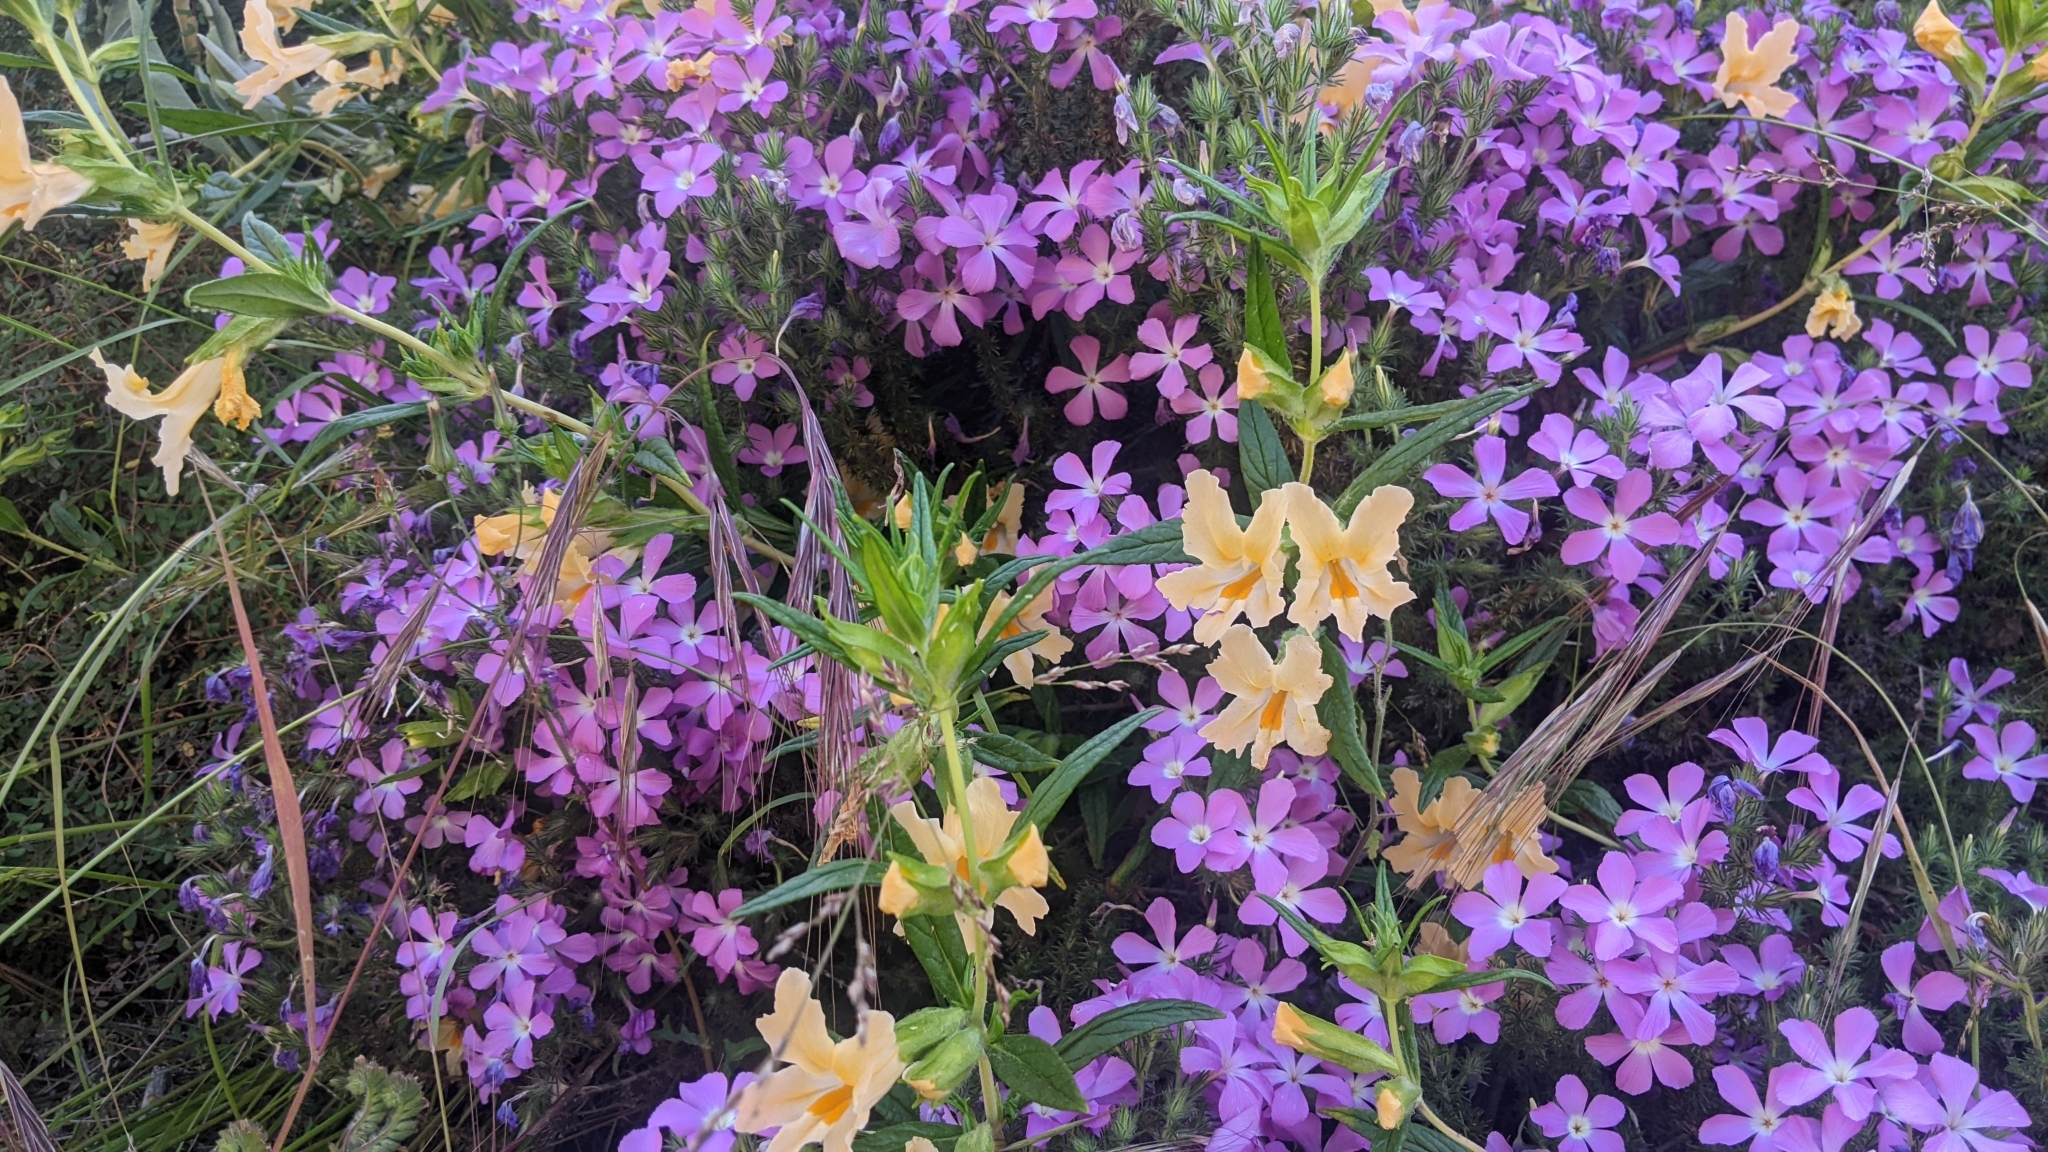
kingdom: Plantae
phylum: Tracheophyta
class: Magnoliopsida
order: Lamiales
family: Phrymaceae
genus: Diplacus
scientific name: Diplacus longiflorus
